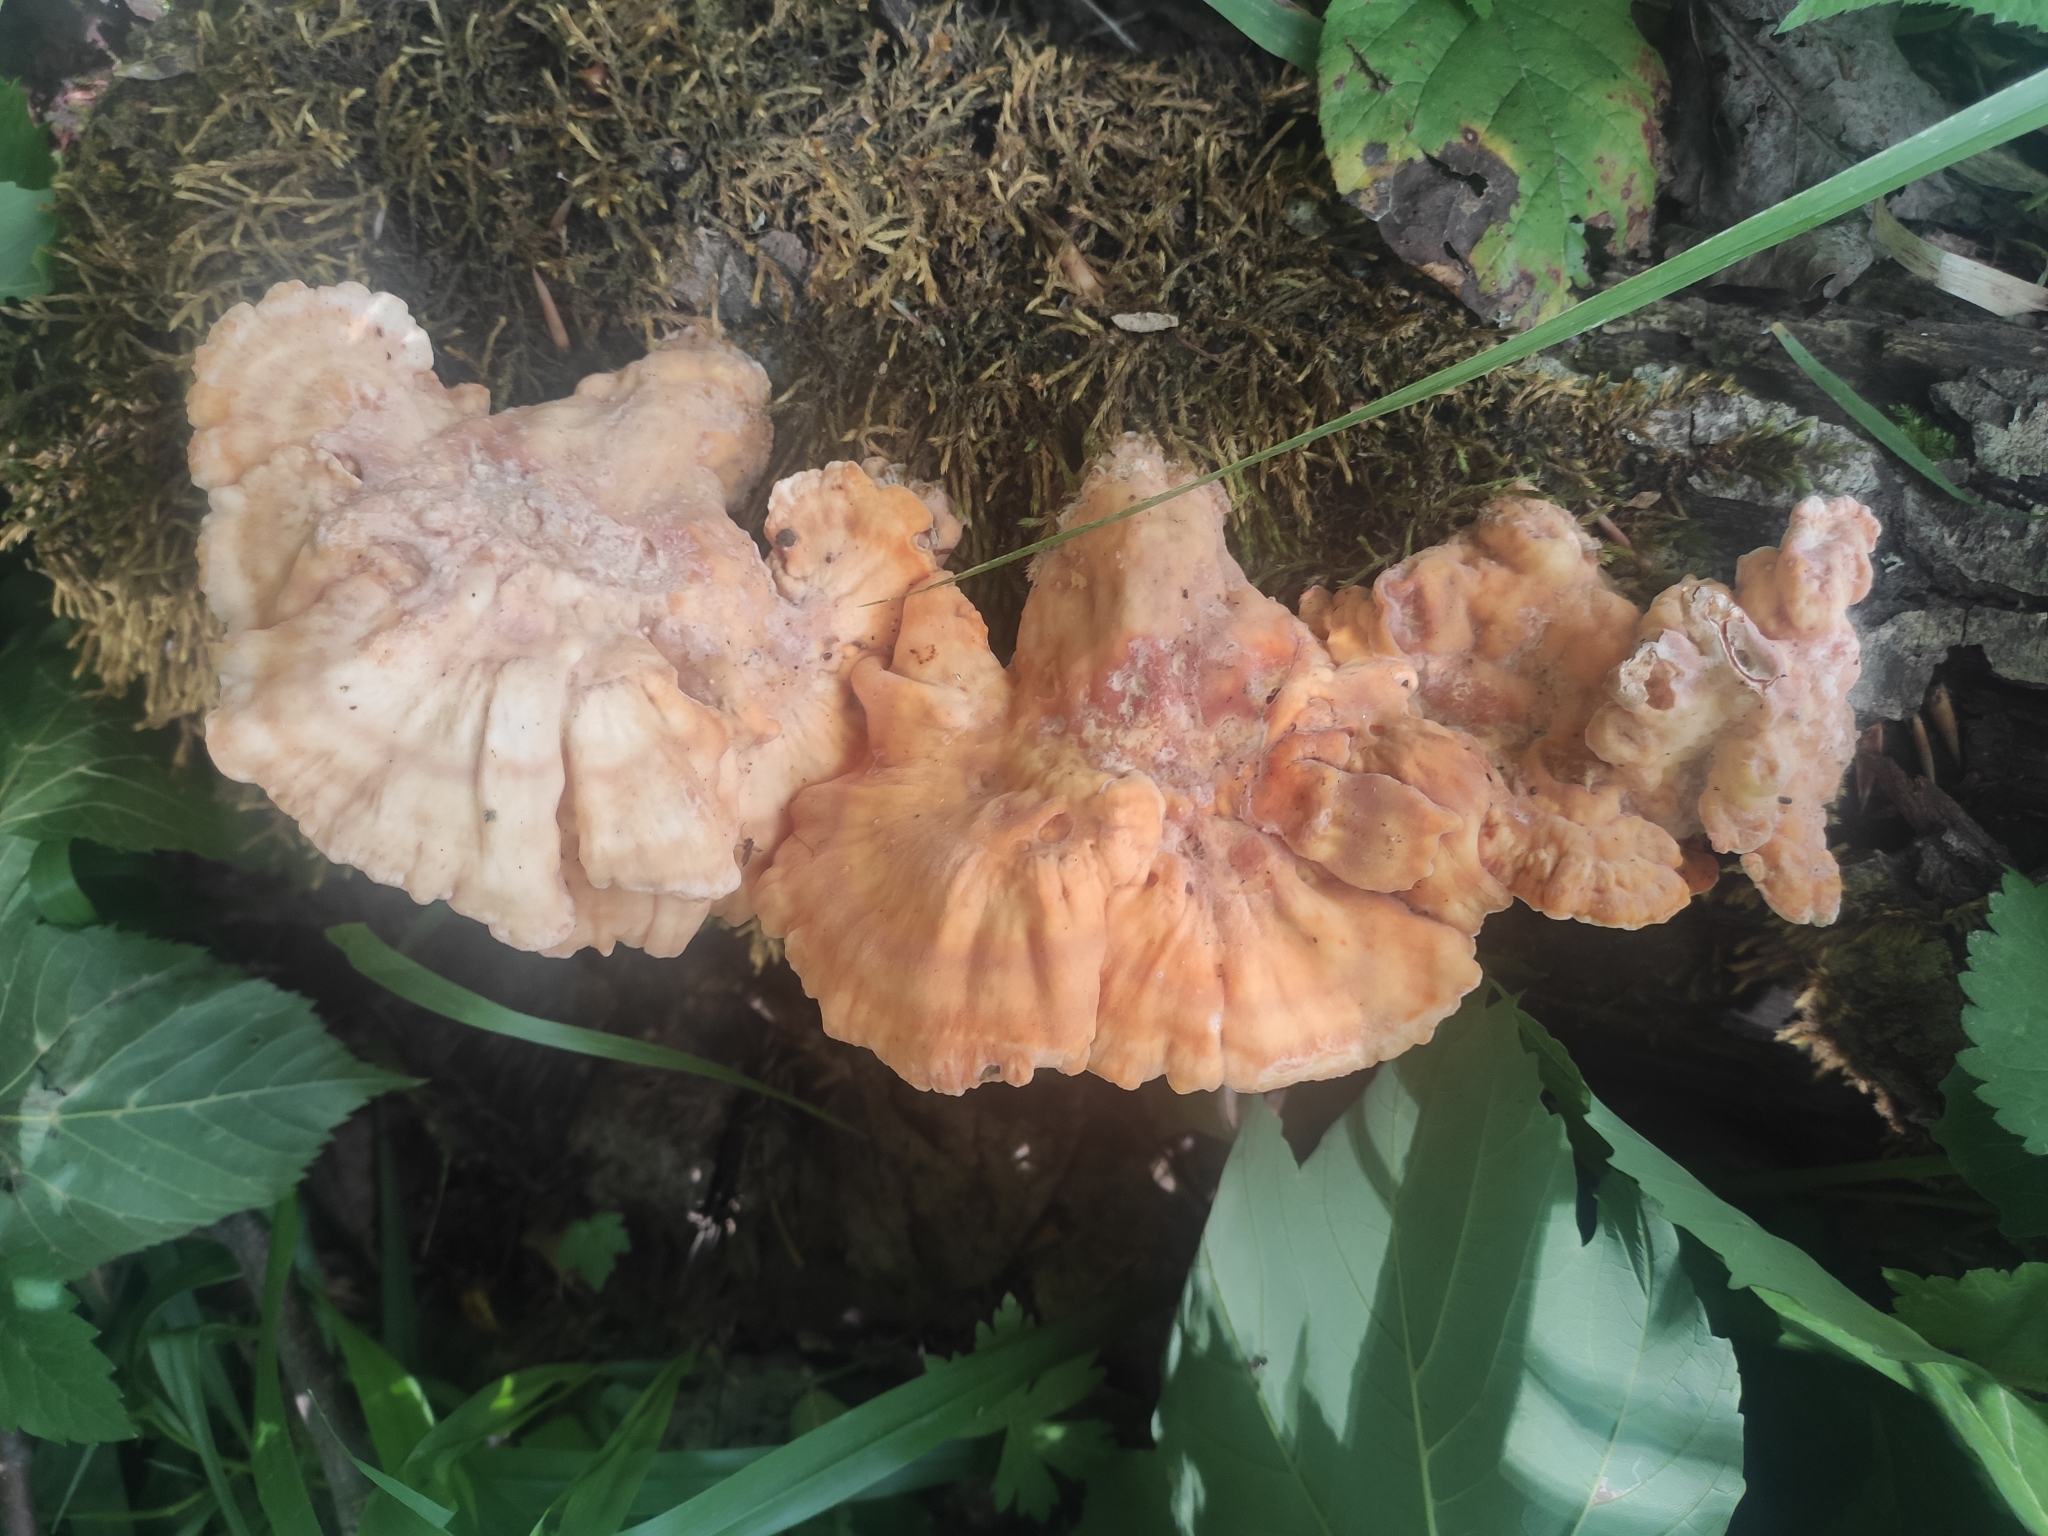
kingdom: Fungi
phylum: Basidiomycota
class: Agaricomycetes
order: Polyporales
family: Laetiporaceae
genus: Laetiporus
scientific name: Laetiporus sulphureus
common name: Chicken of the woods
